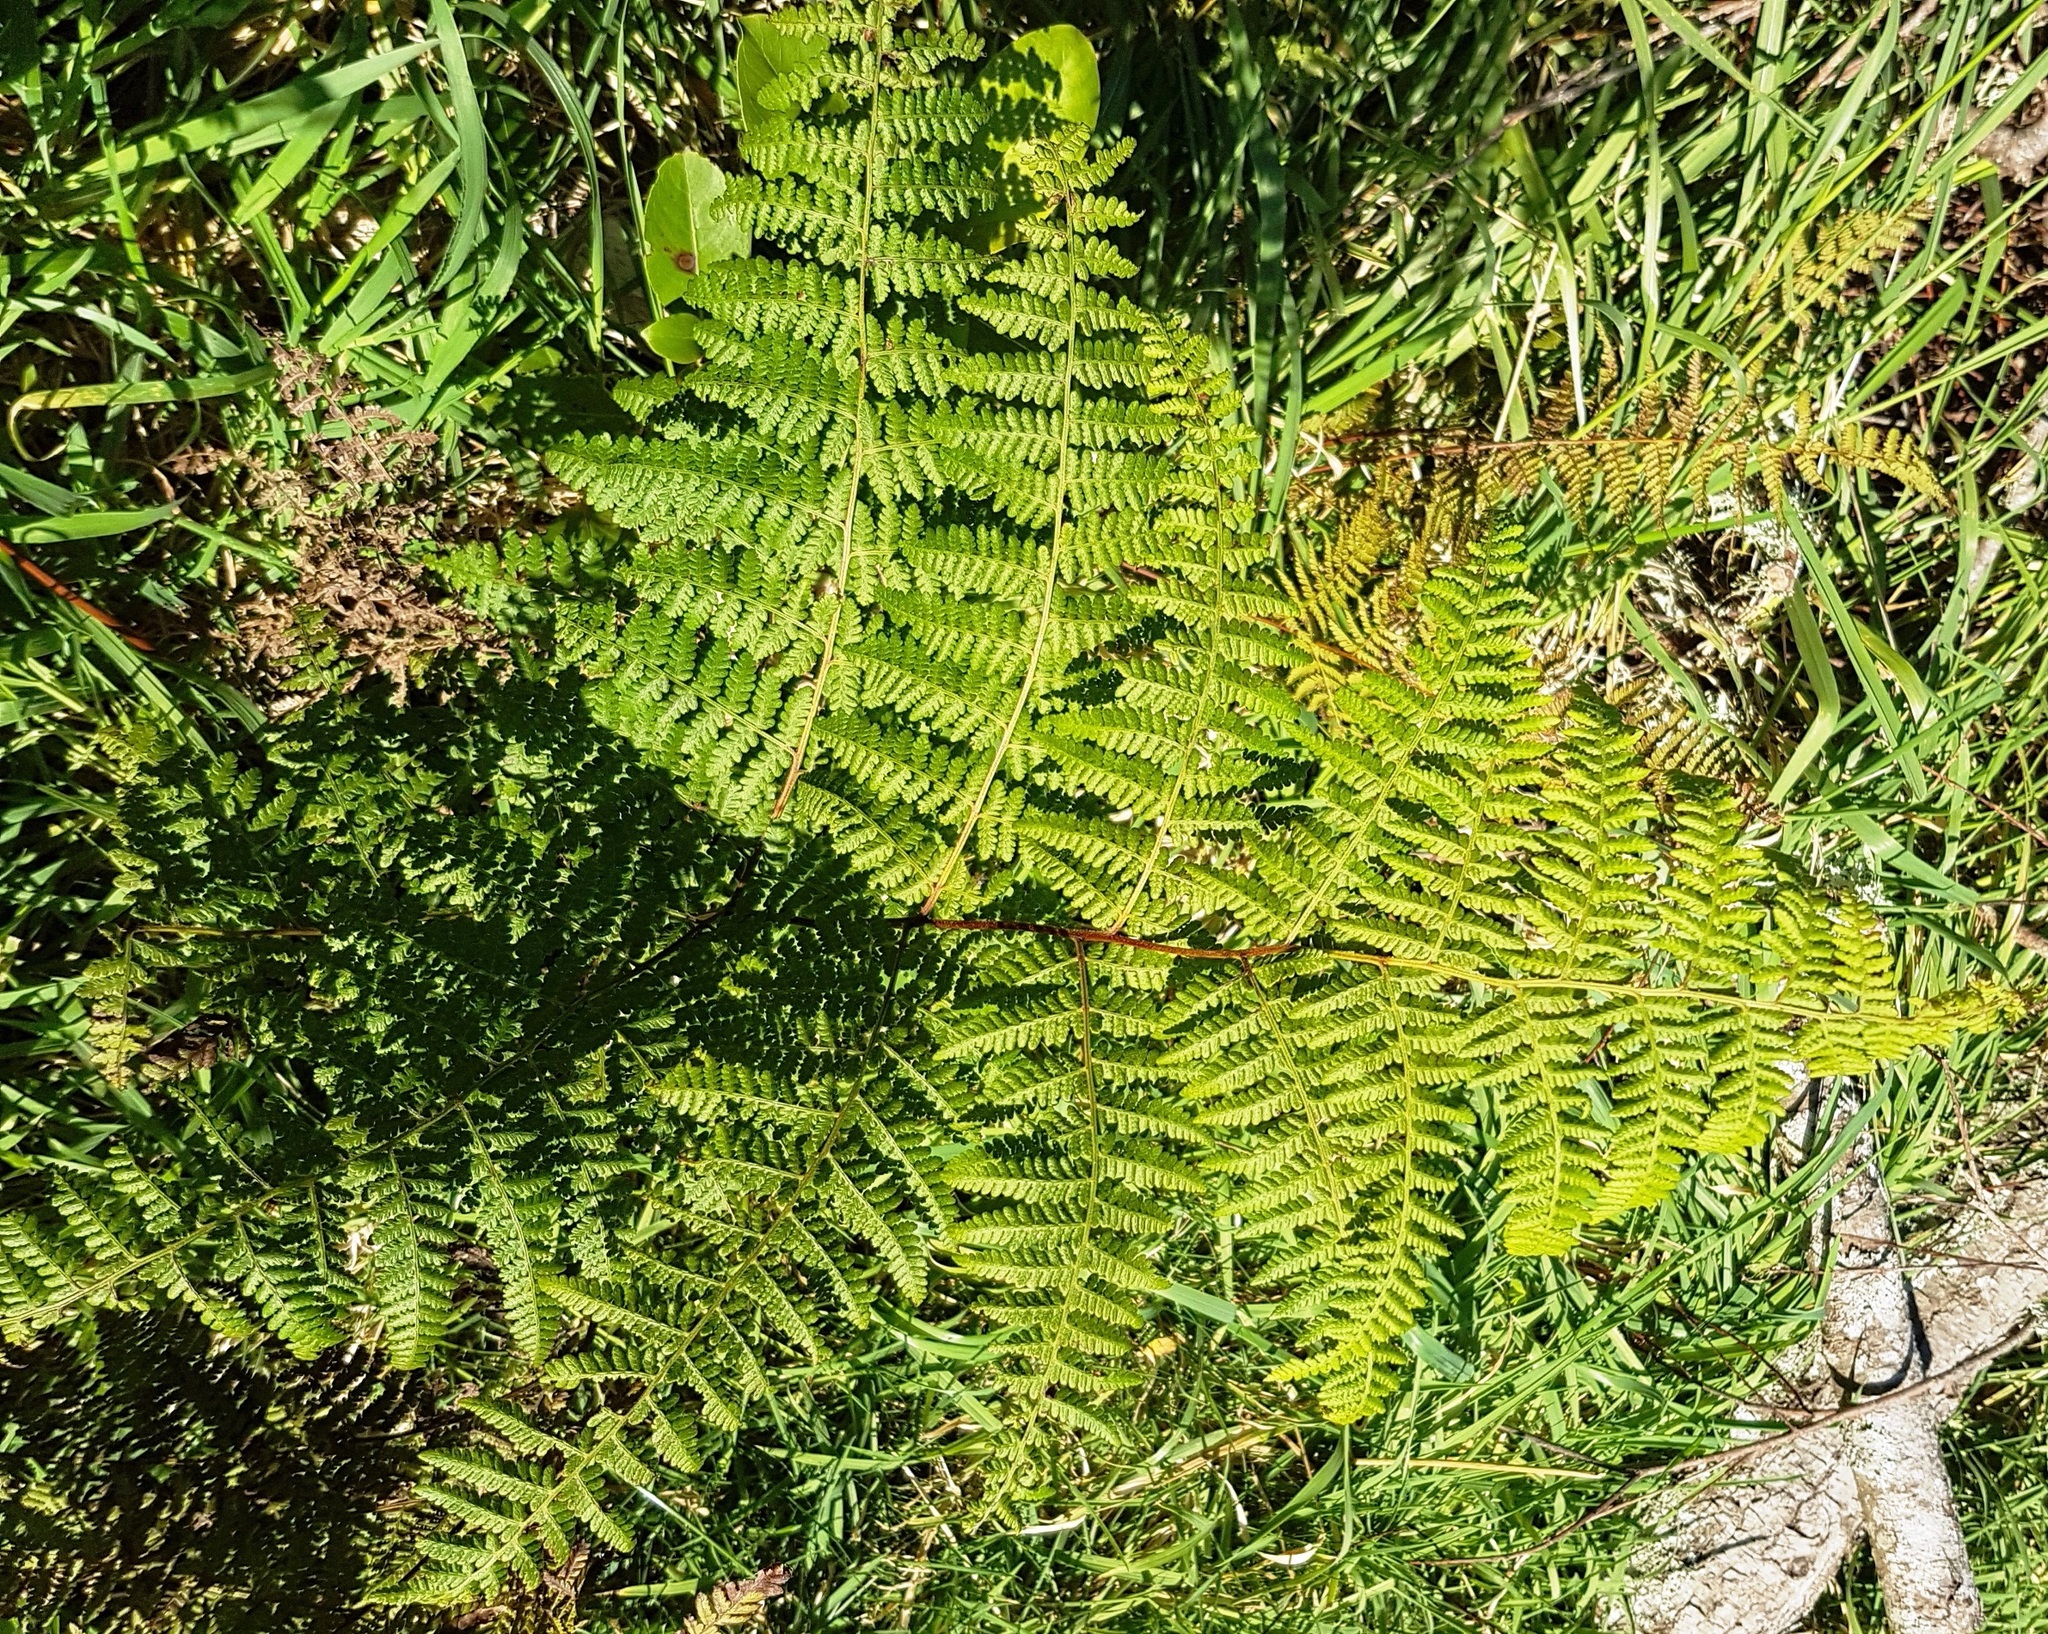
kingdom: Plantae
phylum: Tracheophyta
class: Polypodiopsida
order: Polypodiales
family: Dennstaedtiaceae
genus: Hypolepis
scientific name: Hypolepis ambigua
